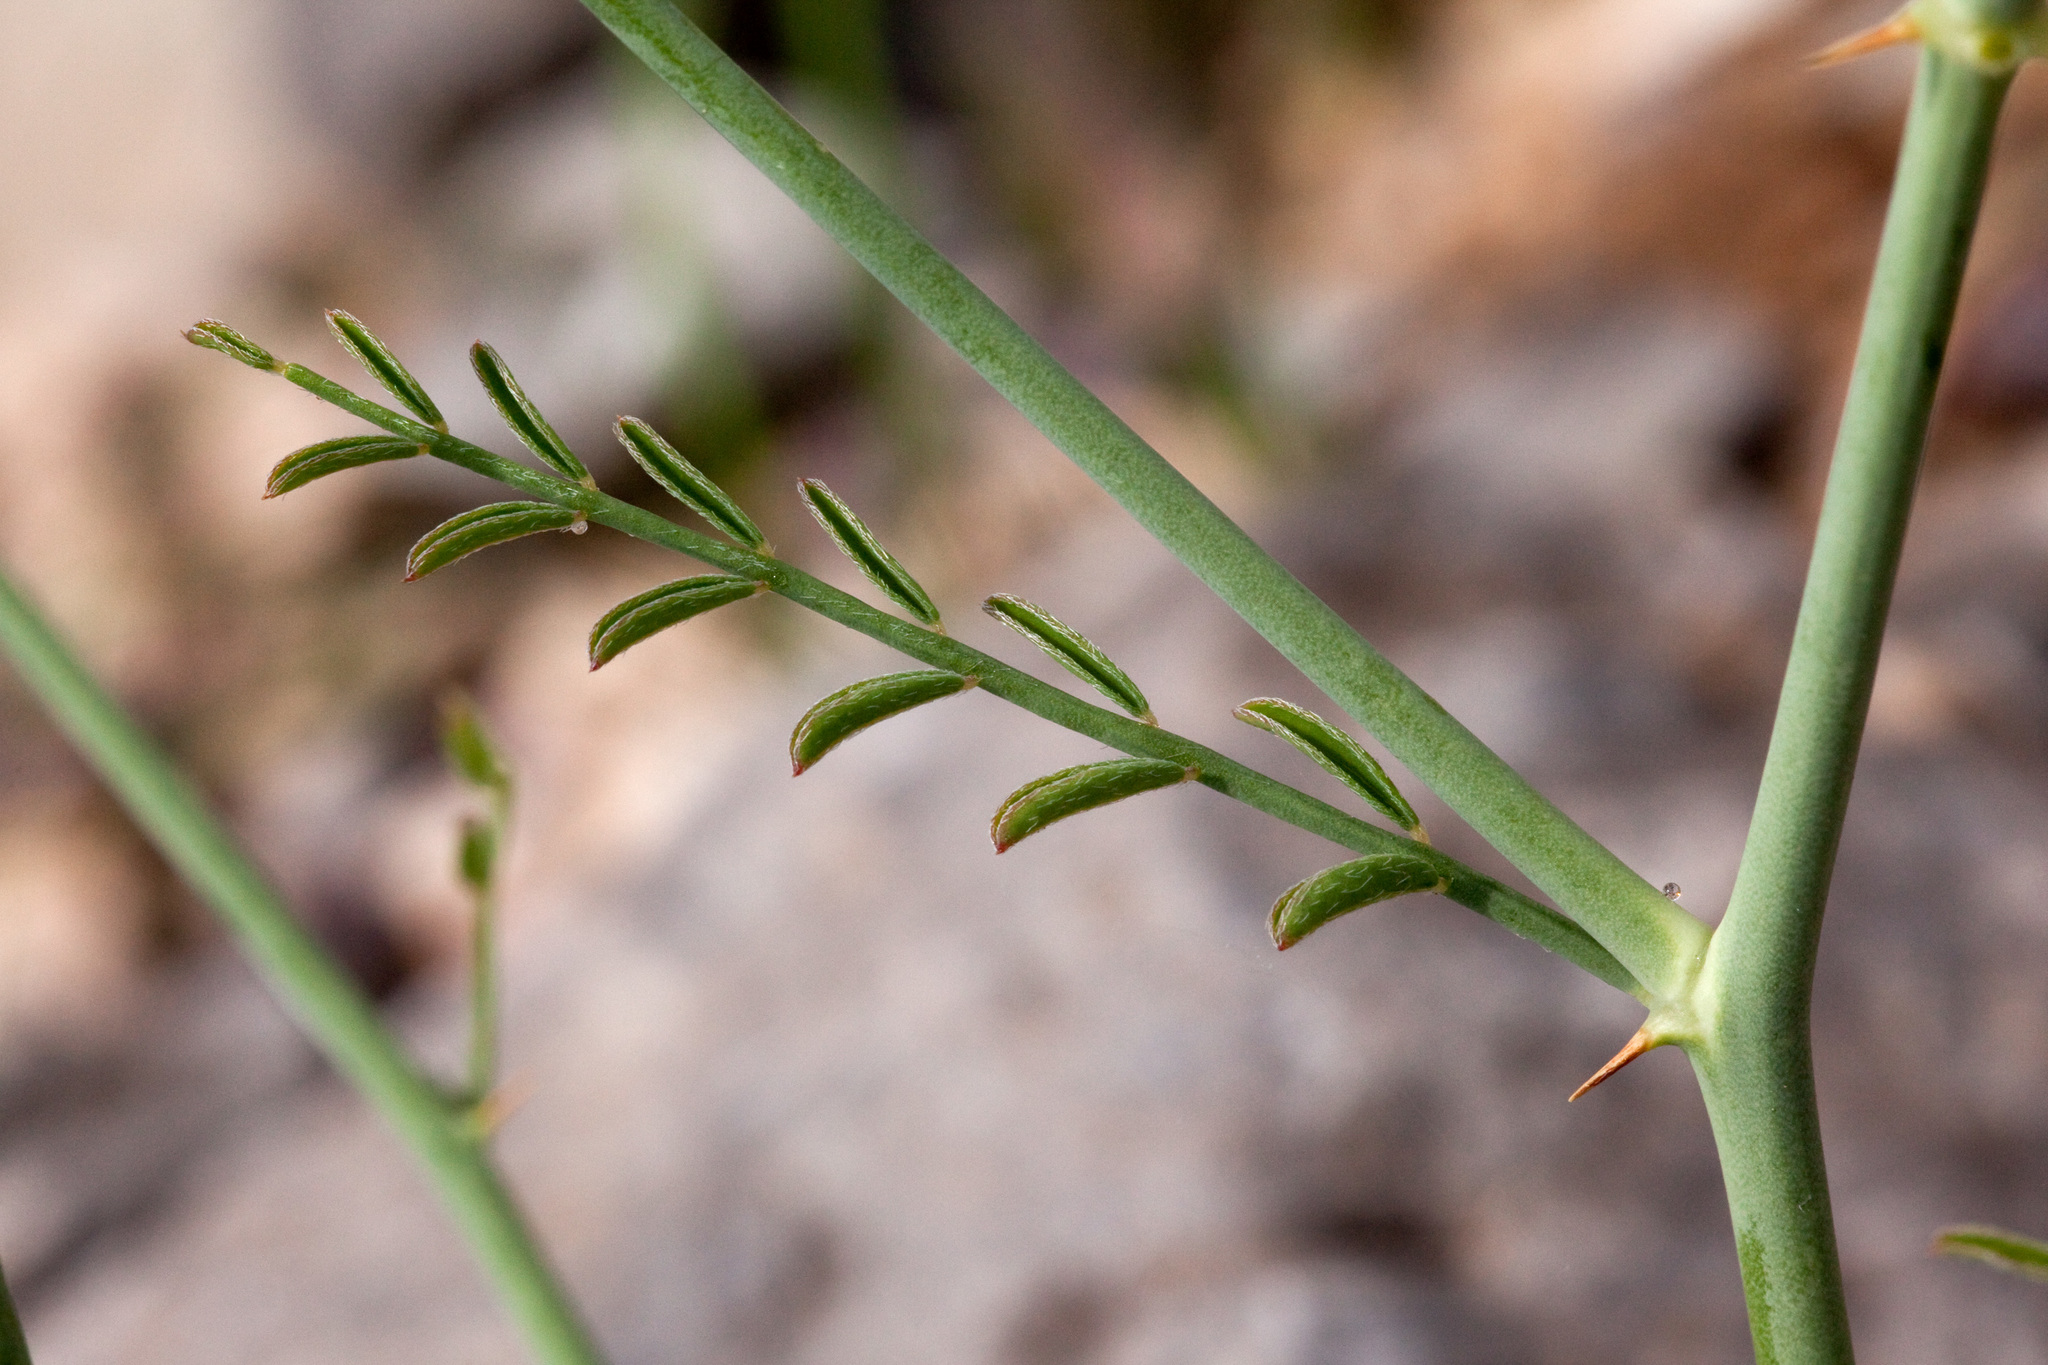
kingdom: Plantae
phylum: Tracheophyta
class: Magnoliopsida
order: Fabales
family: Fabaceae
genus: Peteria
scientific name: Peteria scoparia
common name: Camote del monte
